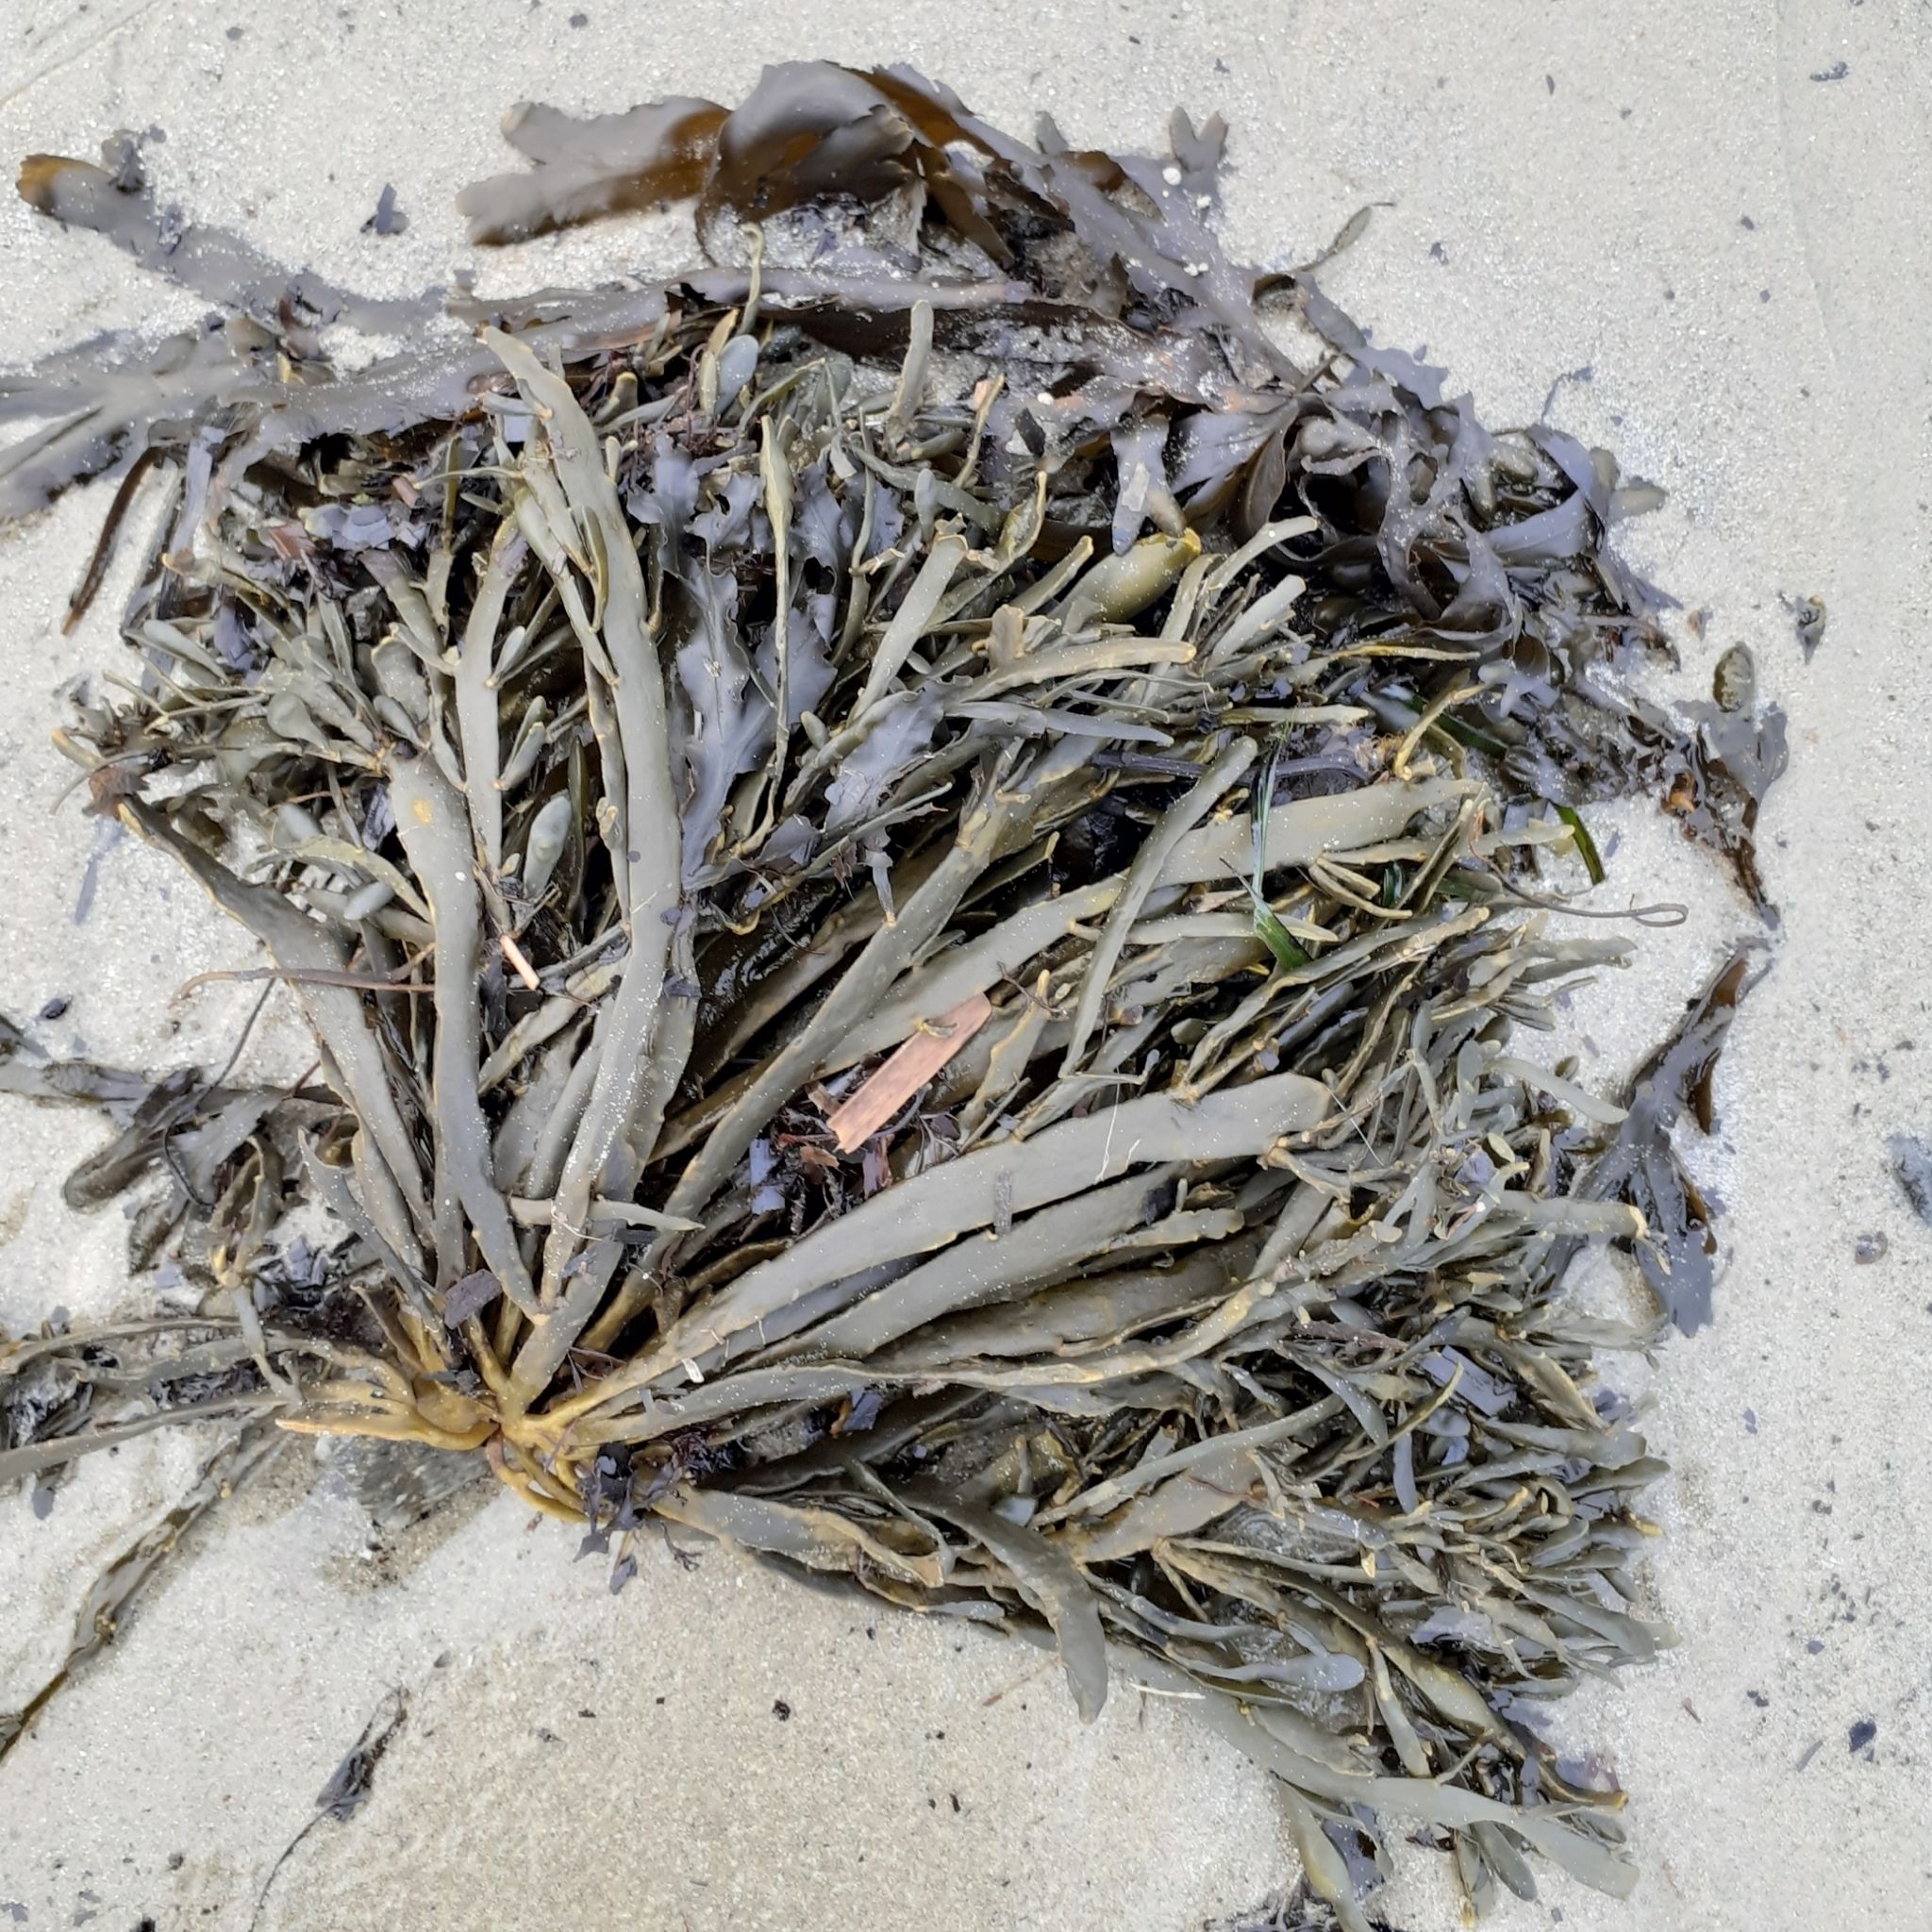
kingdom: Chromista
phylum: Ochrophyta
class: Phaeophyceae
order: Fucales
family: Fucaceae
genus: Ascophyllum
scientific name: Ascophyllum nodosum
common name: Knotted wrack
